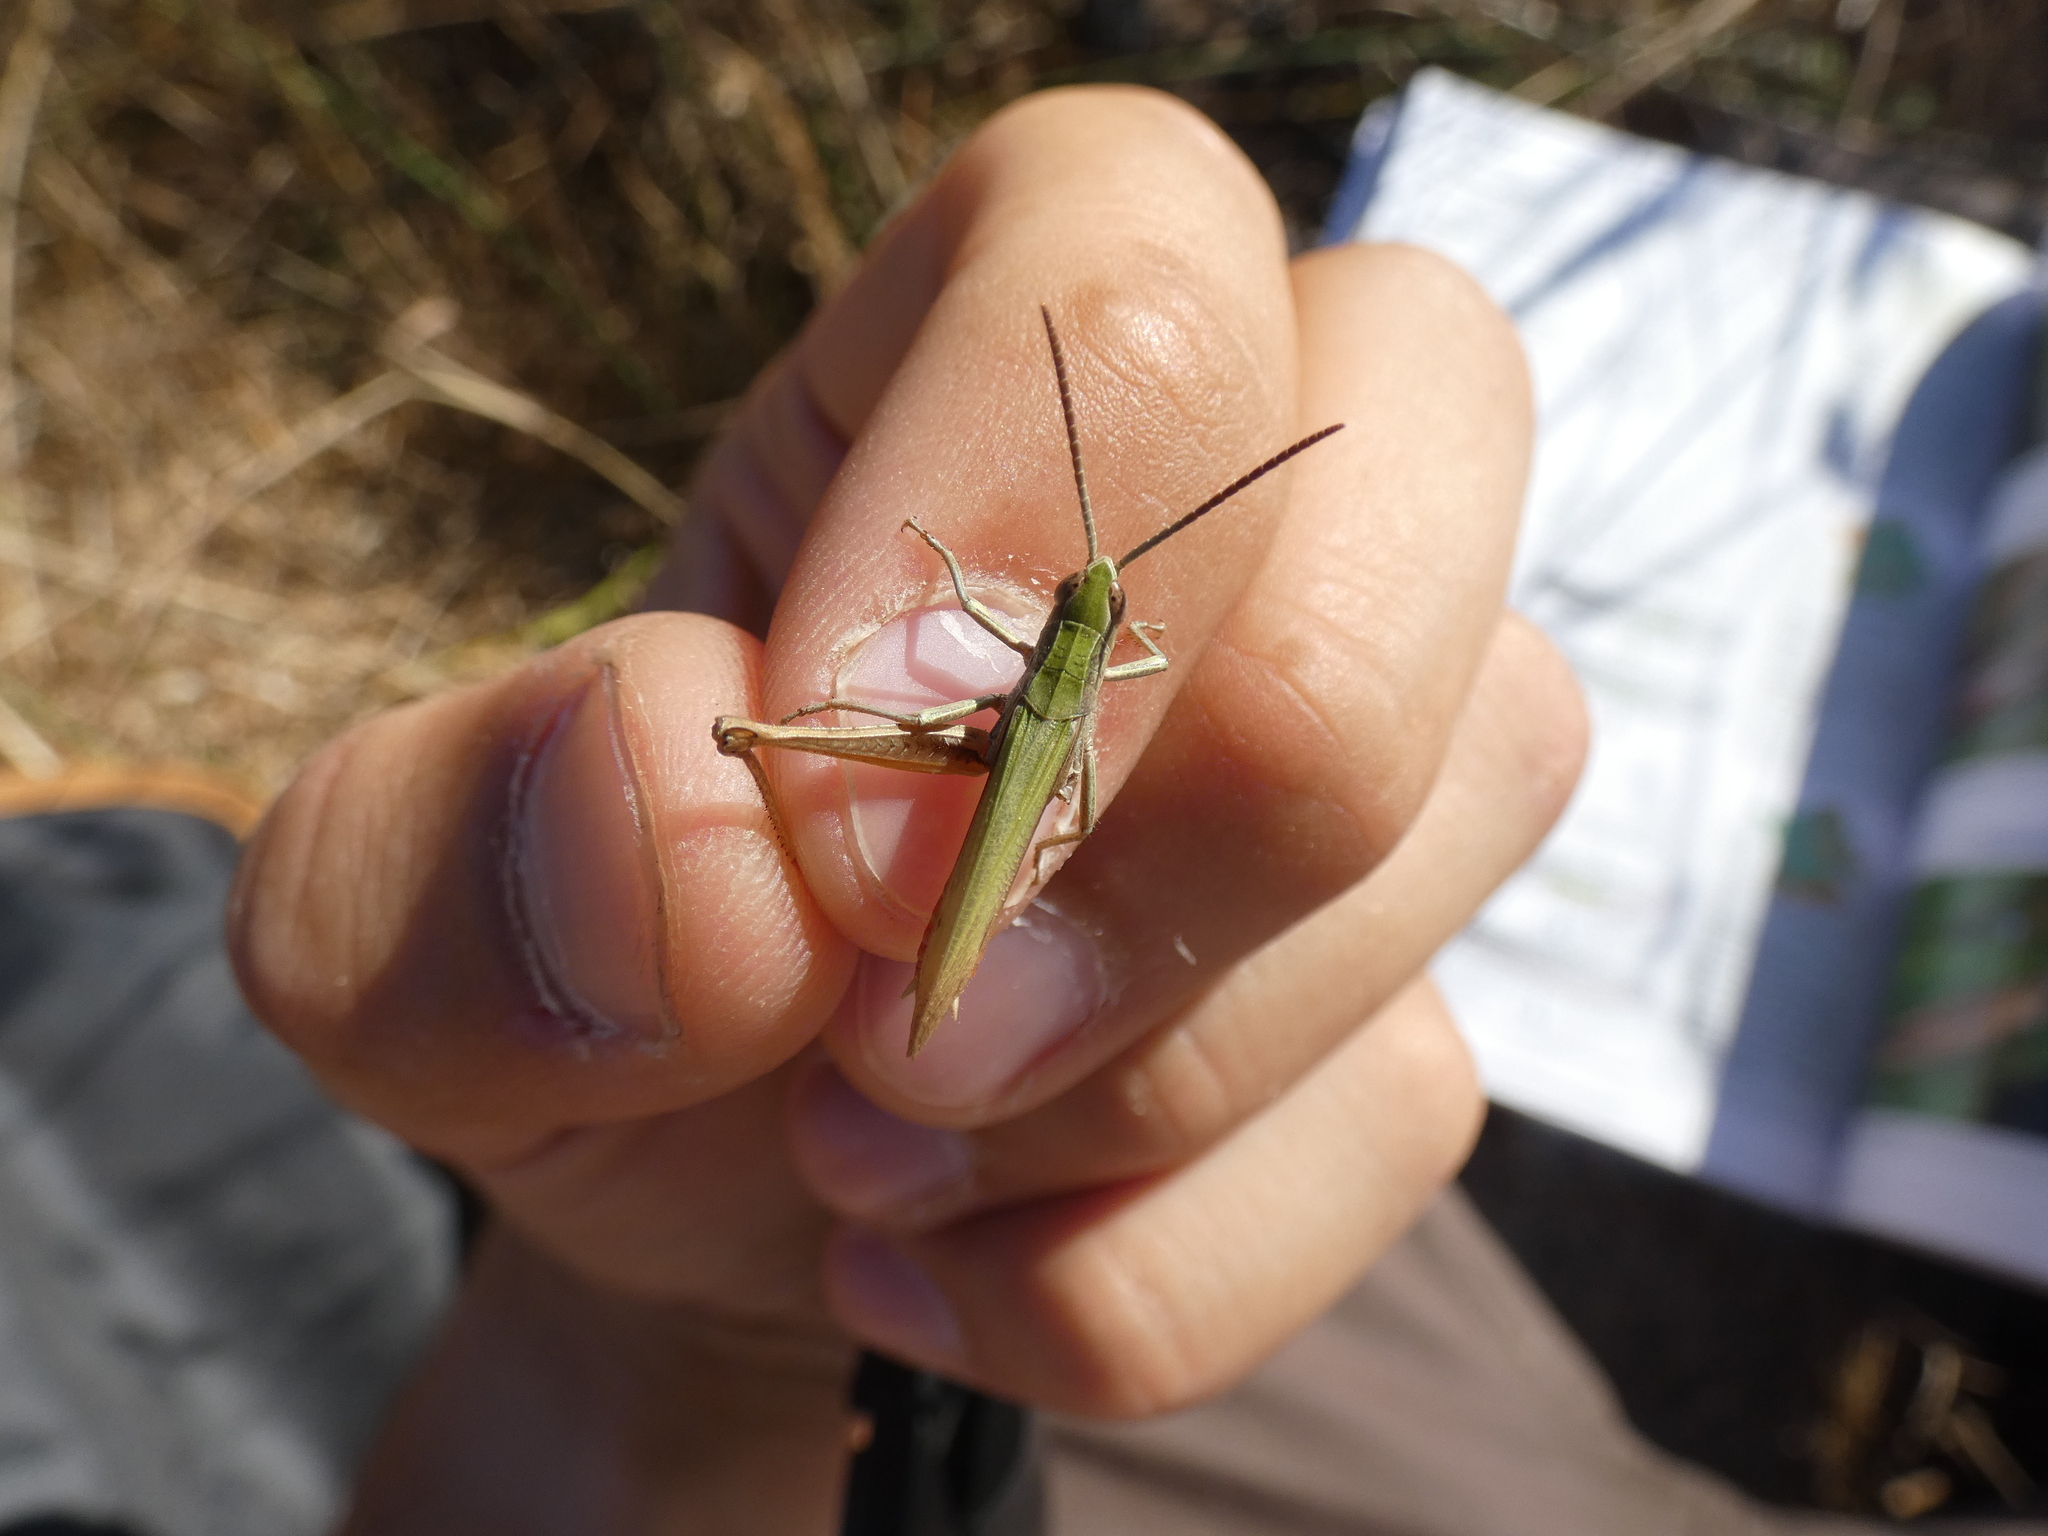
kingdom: Animalia
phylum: Arthropoda
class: Insecta
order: Orthoptera
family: Acrididae
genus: Chorthippus
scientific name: Chorthippus dorsatus
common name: Steppe grasshopper
